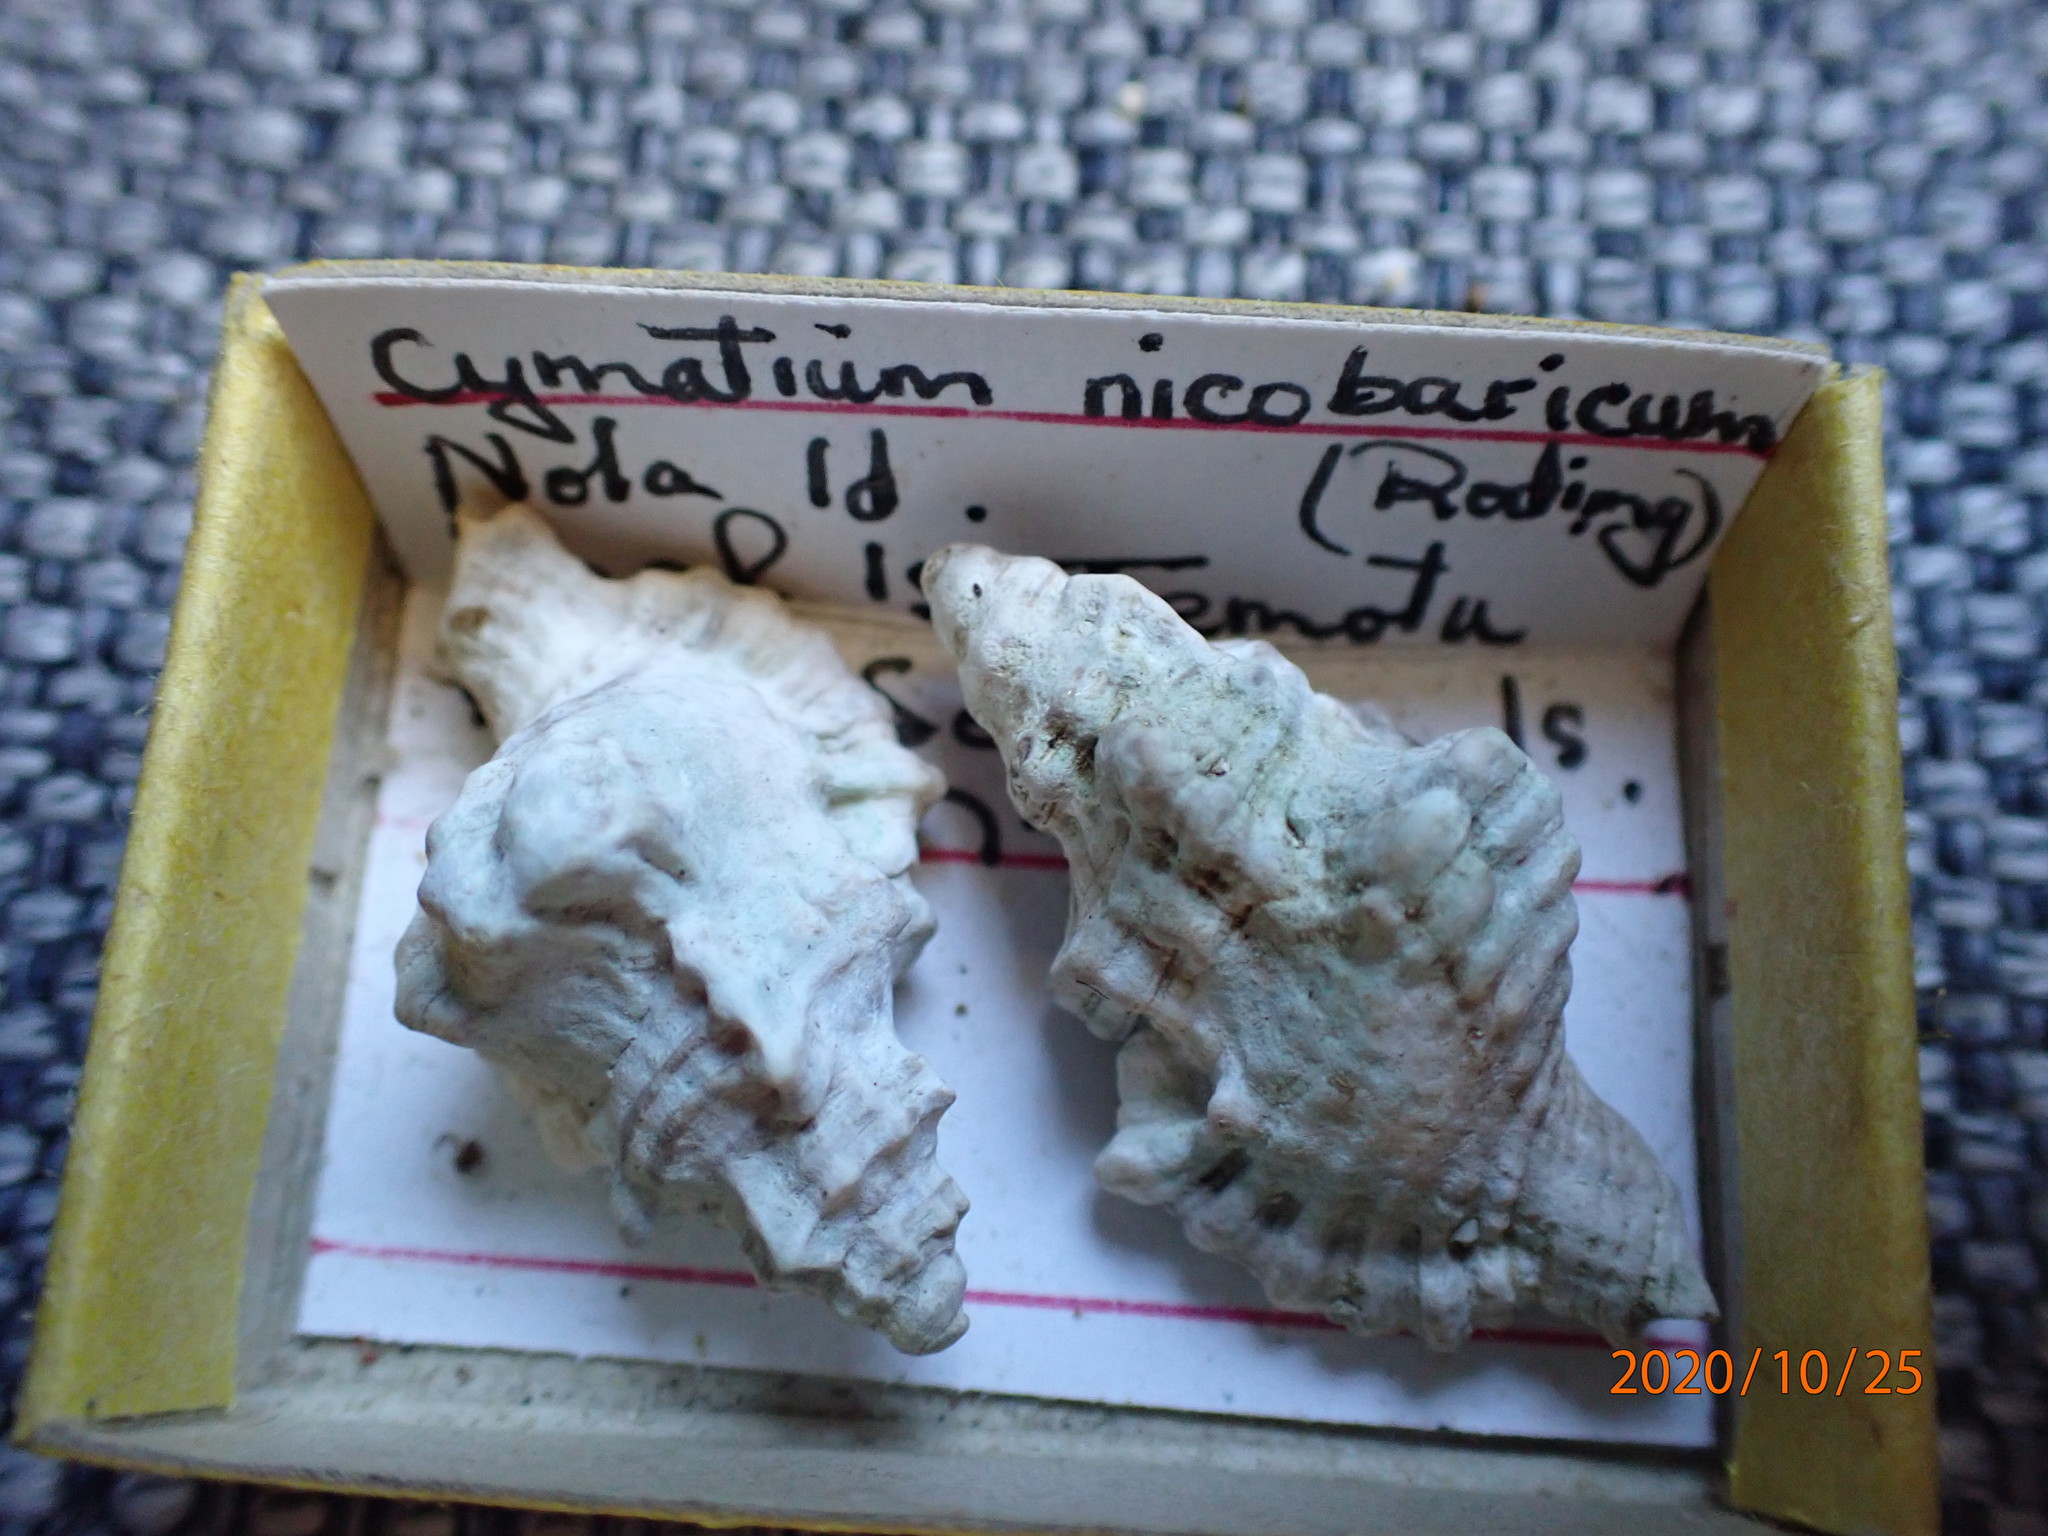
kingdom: Animalia
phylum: Mollusca
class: Gastropoda
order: Littorinimorpha
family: Cymatiidae
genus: Monoplex
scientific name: Monoplex nicobaricus
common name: Goldmouth triton
